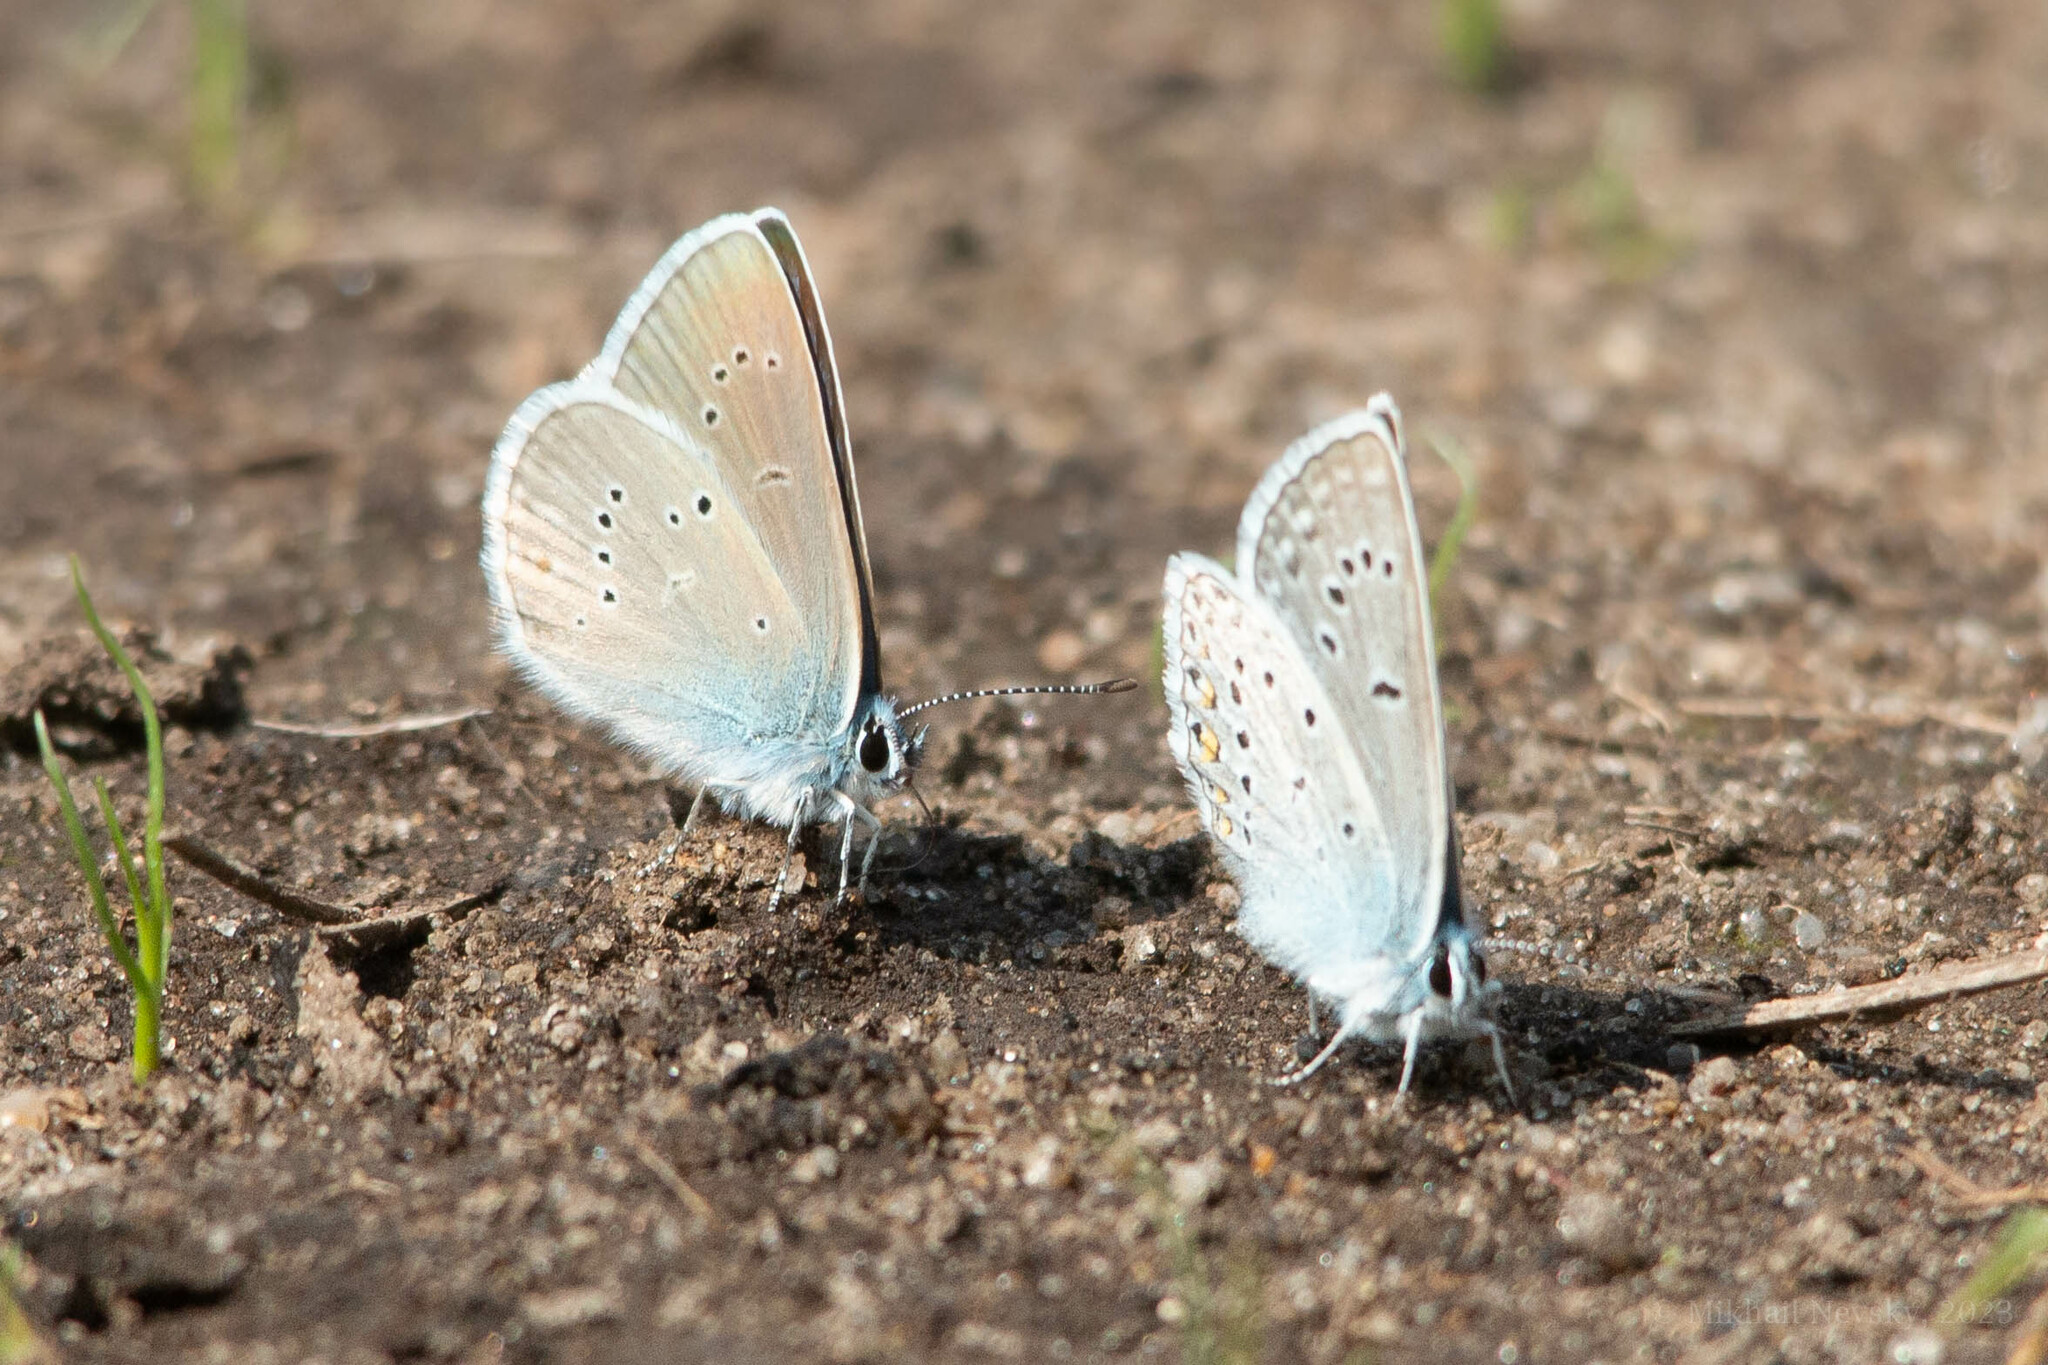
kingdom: Animalia
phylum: Arthropoda
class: Insecta
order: Lepidoptera
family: Lycaenidae
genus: Cyaniris
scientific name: Cyaniris semiargus
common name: Mazarine blue
